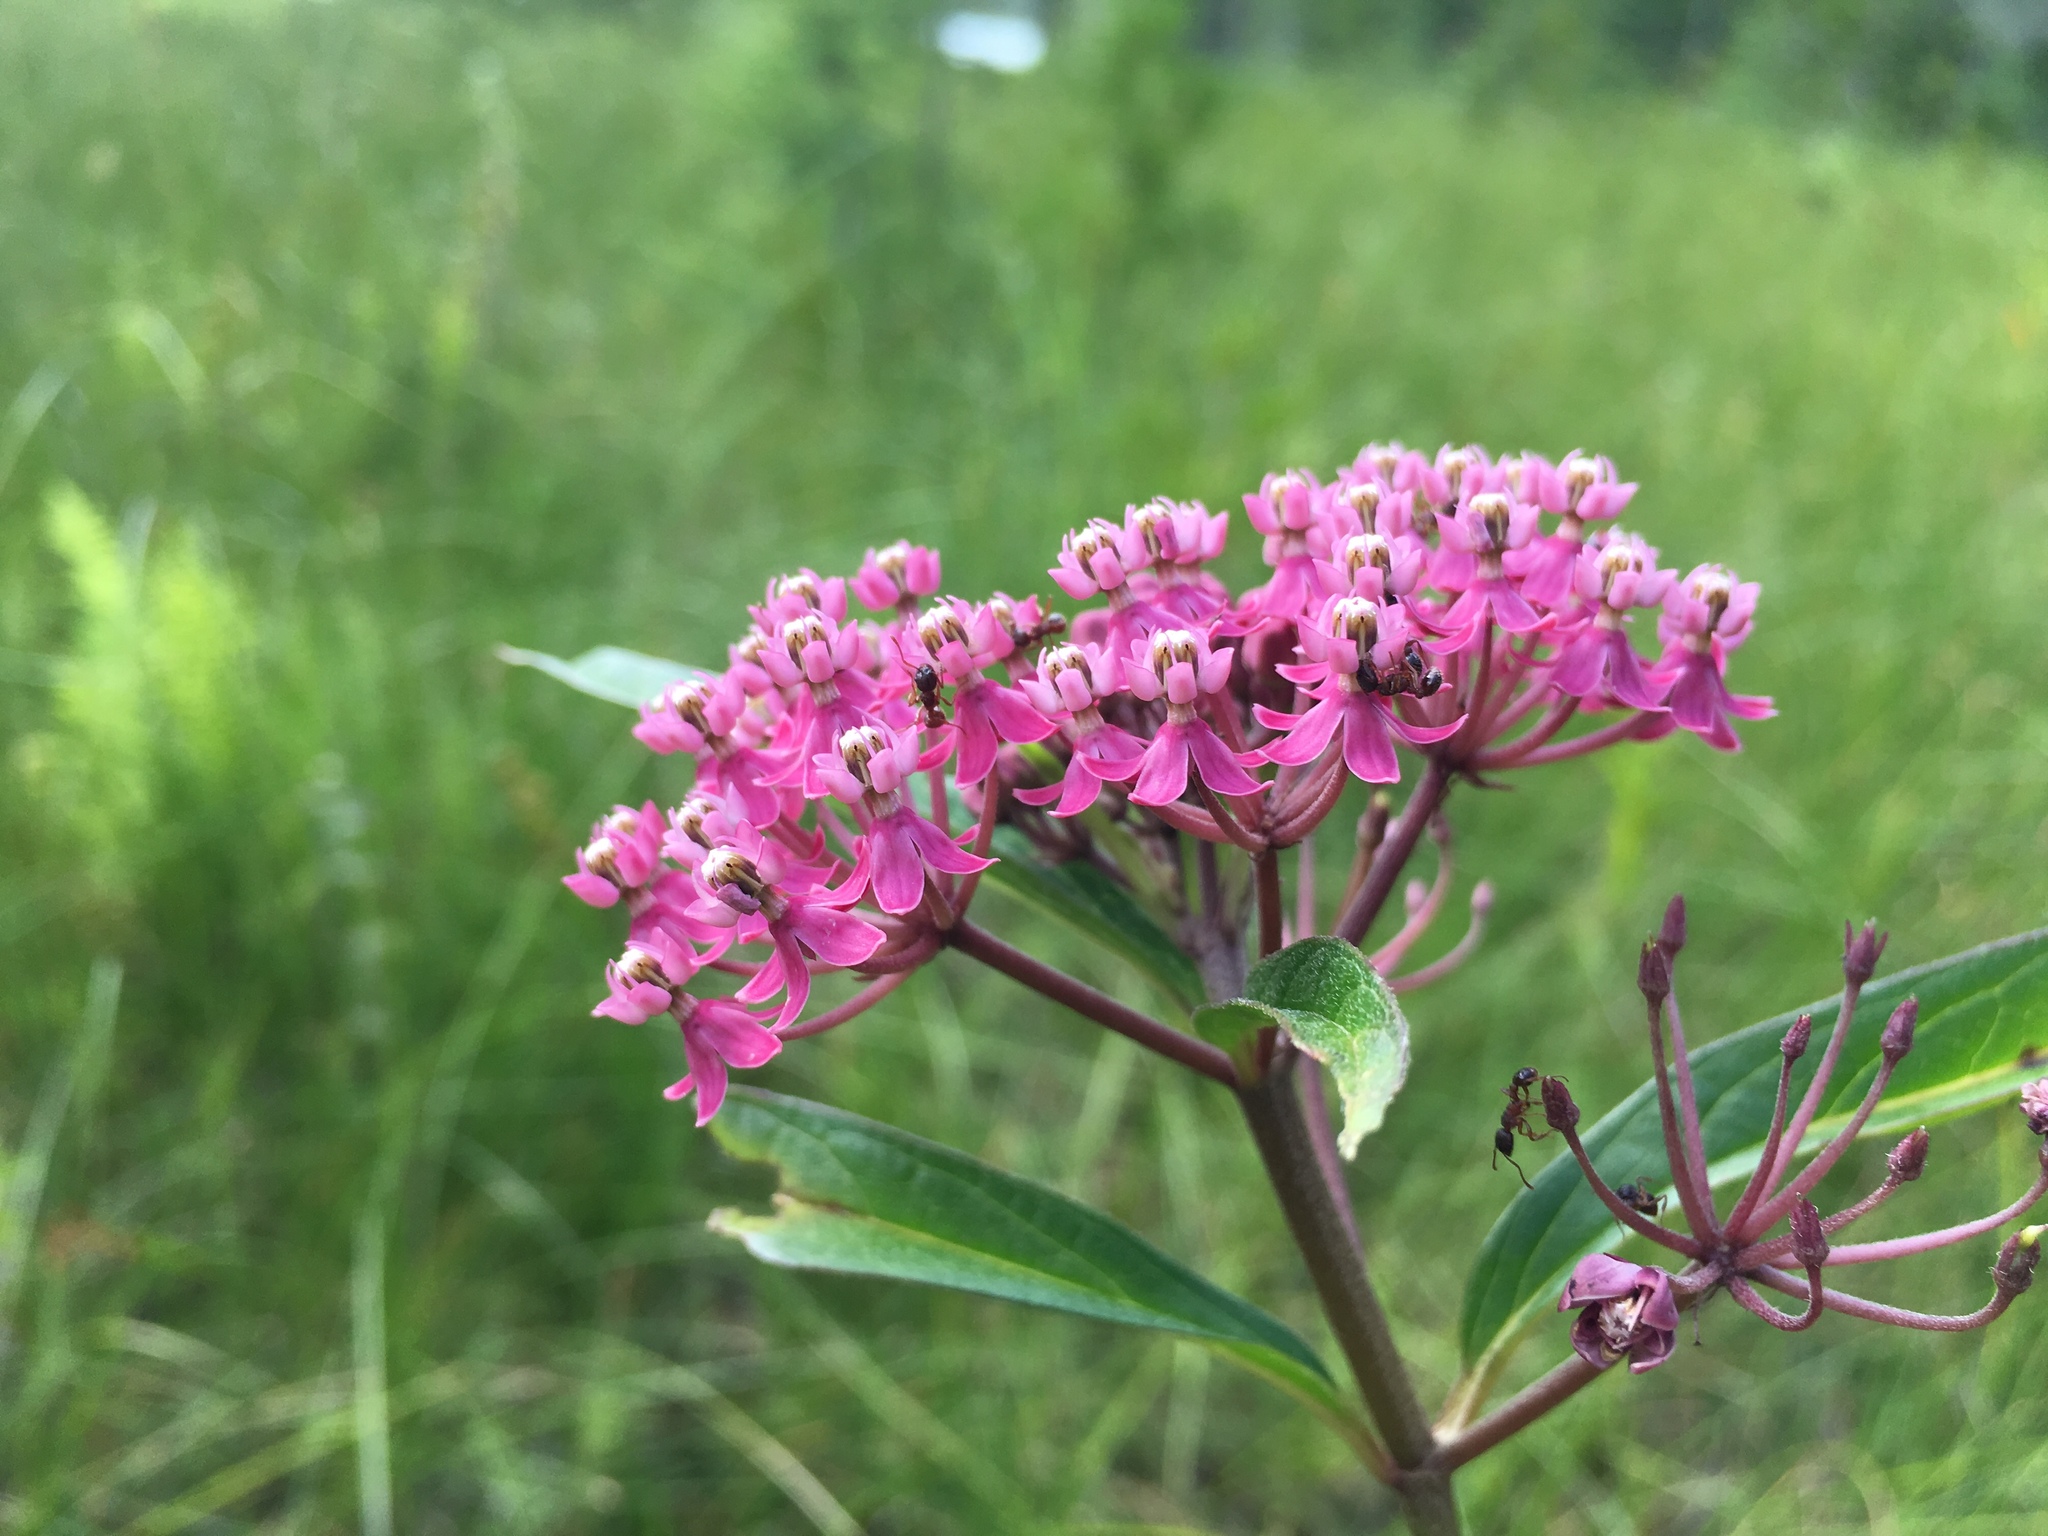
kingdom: Plantae
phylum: Tracheophyta
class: Magnoliopsida
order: Gentianales
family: Apocynaceae
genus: Asclepias
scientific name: Asclepias incarnata
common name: Swamp milkweed
